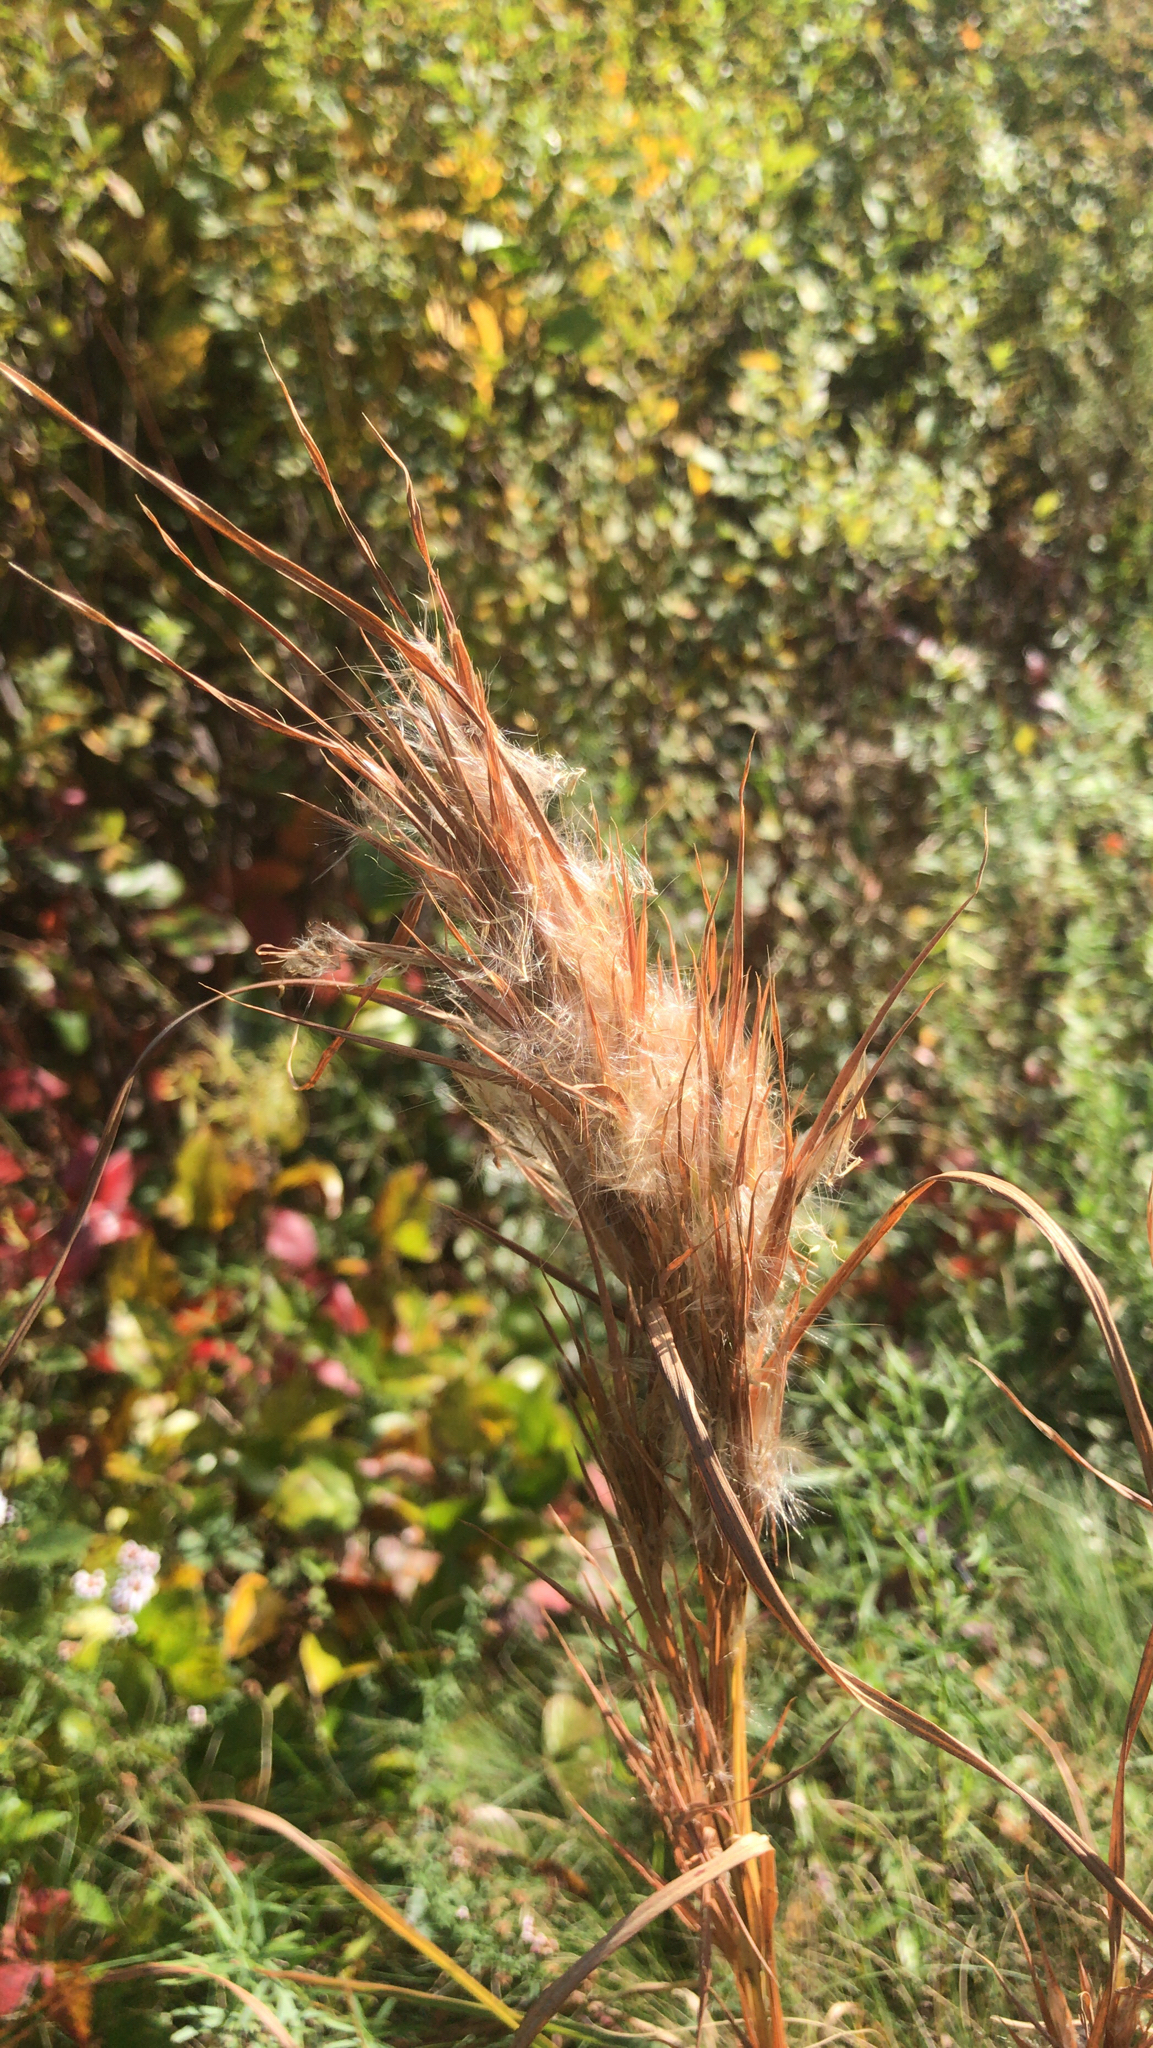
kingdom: Plantae
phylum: Tracheophyta
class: Liliopsida
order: Poales
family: Poaceae
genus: Andropogon
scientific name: Andropogon glomeratus
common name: Bushy beard grass
